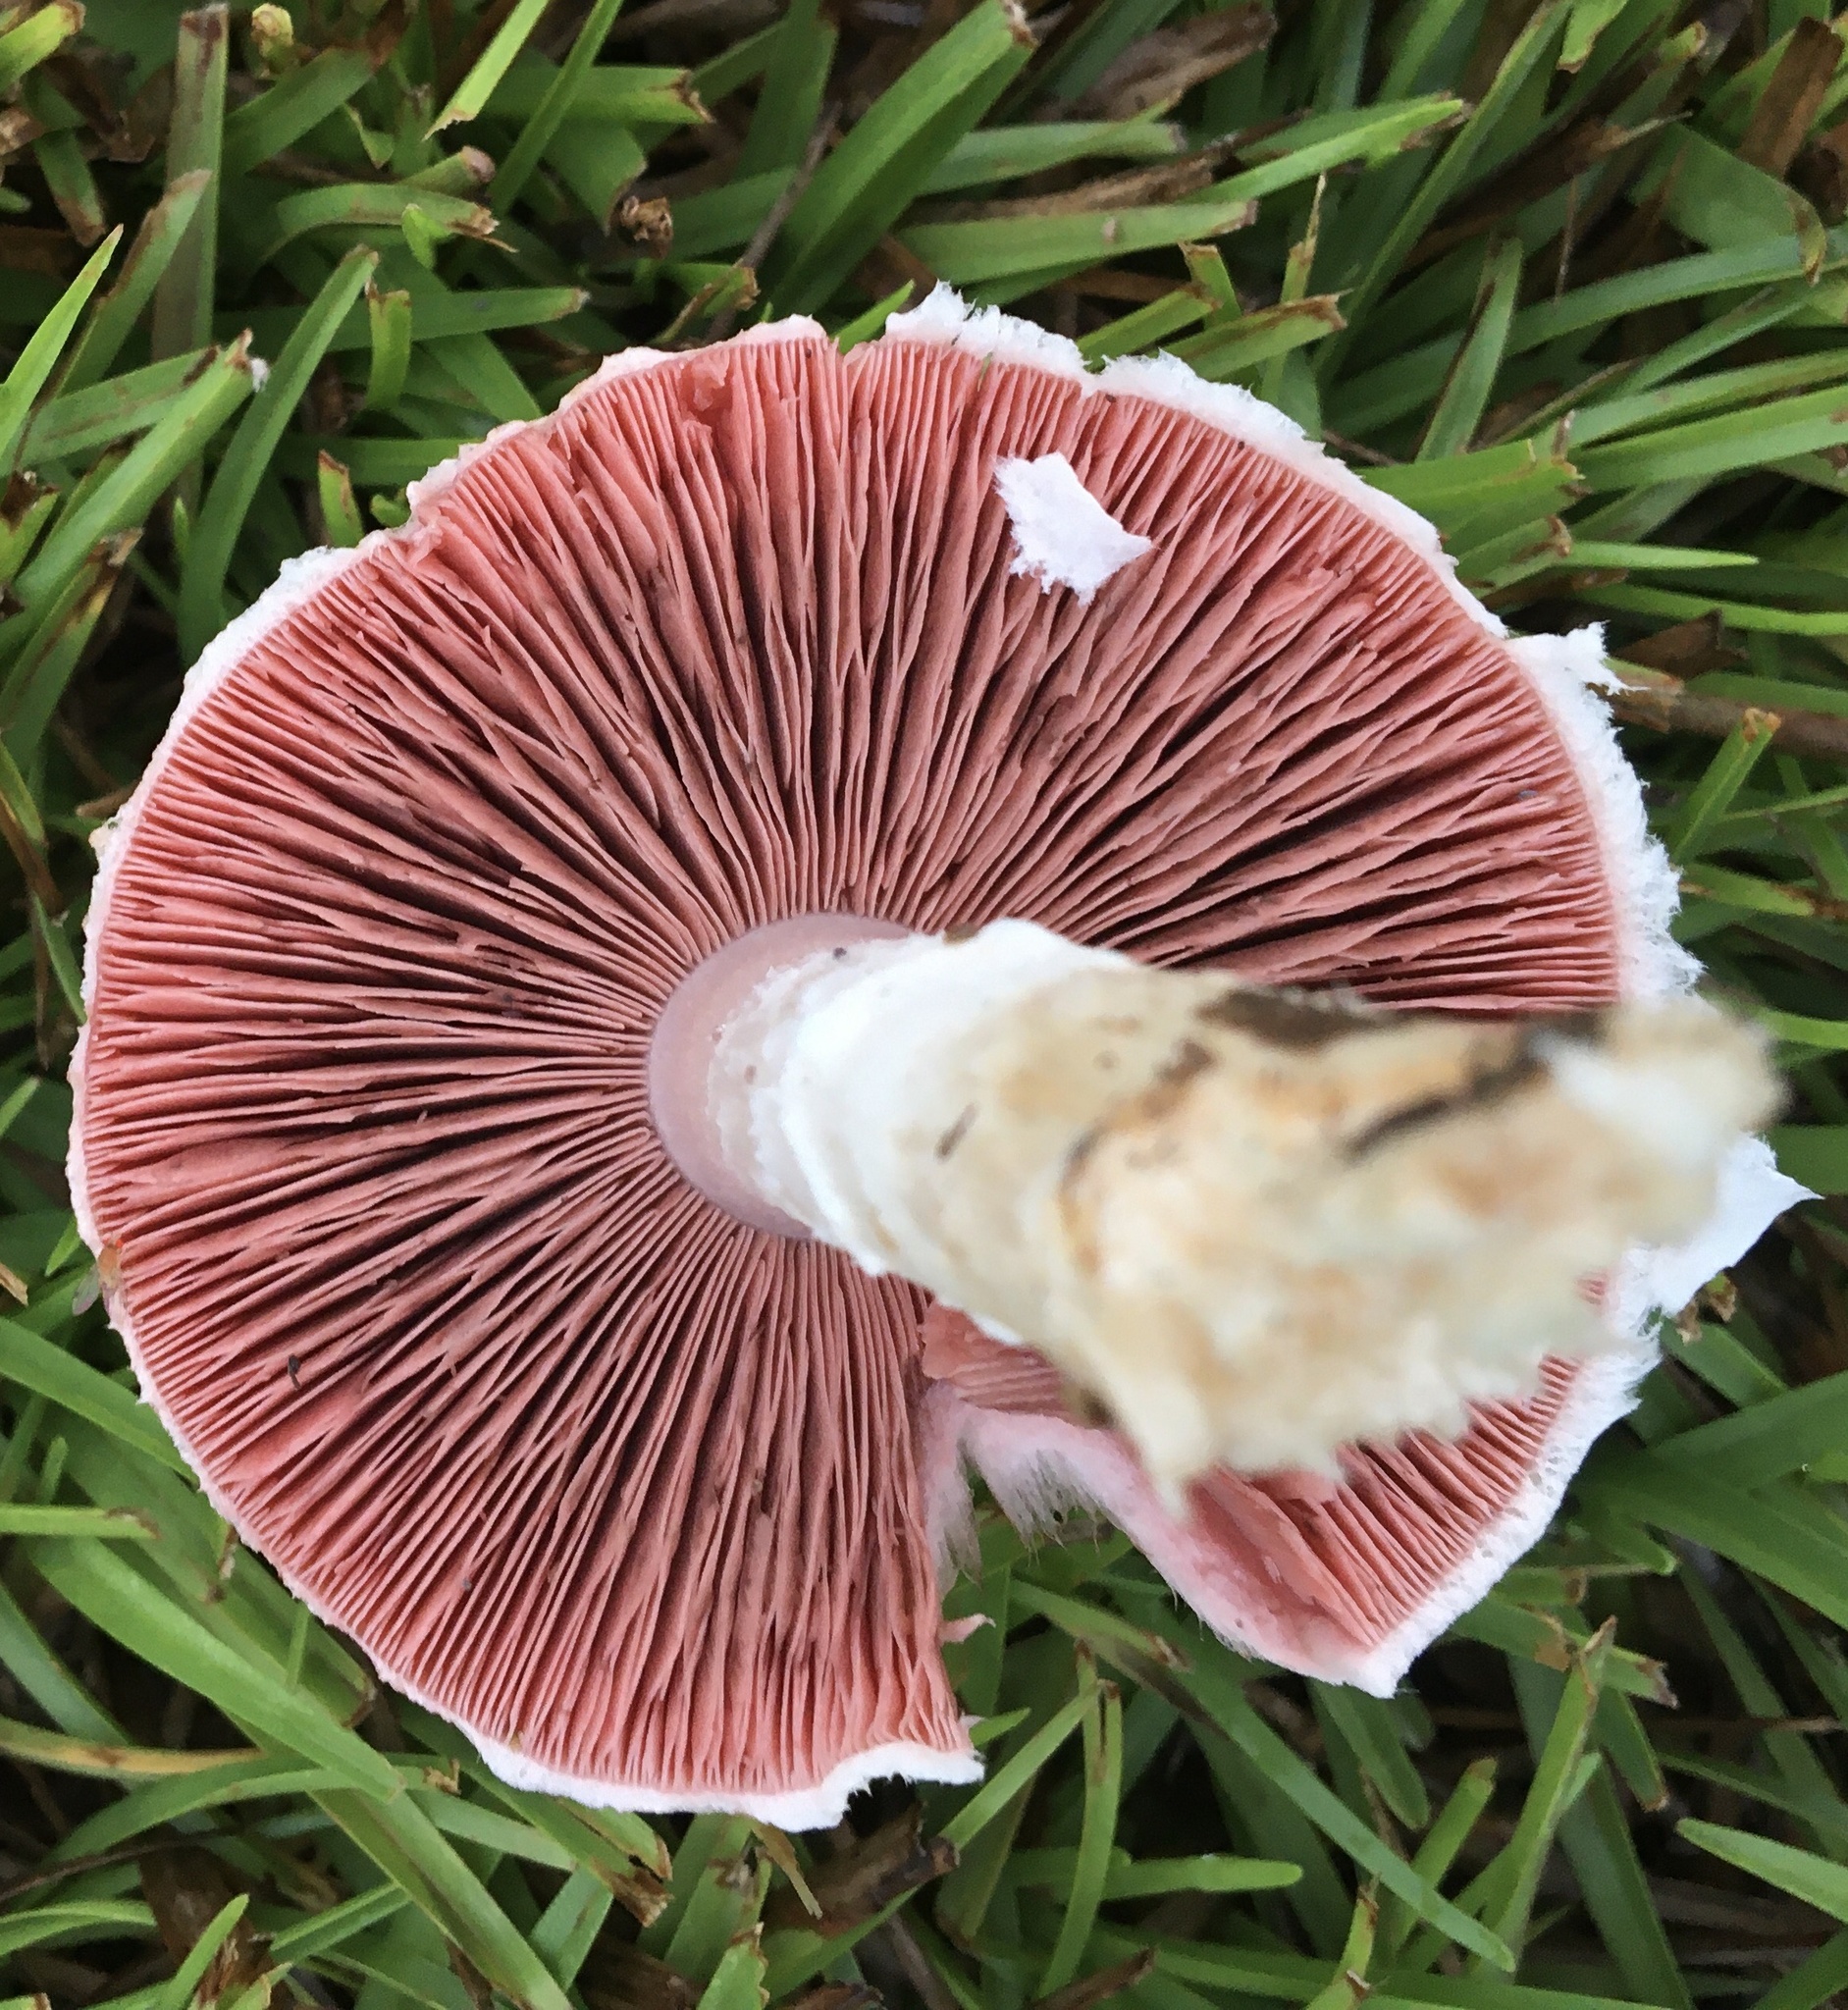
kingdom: Fungi
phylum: Basidiomycota
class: Agaricomycetes
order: Agaricales
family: Agaricaceae
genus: Agaricus
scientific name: Agaricus campestris
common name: Field mushroom
